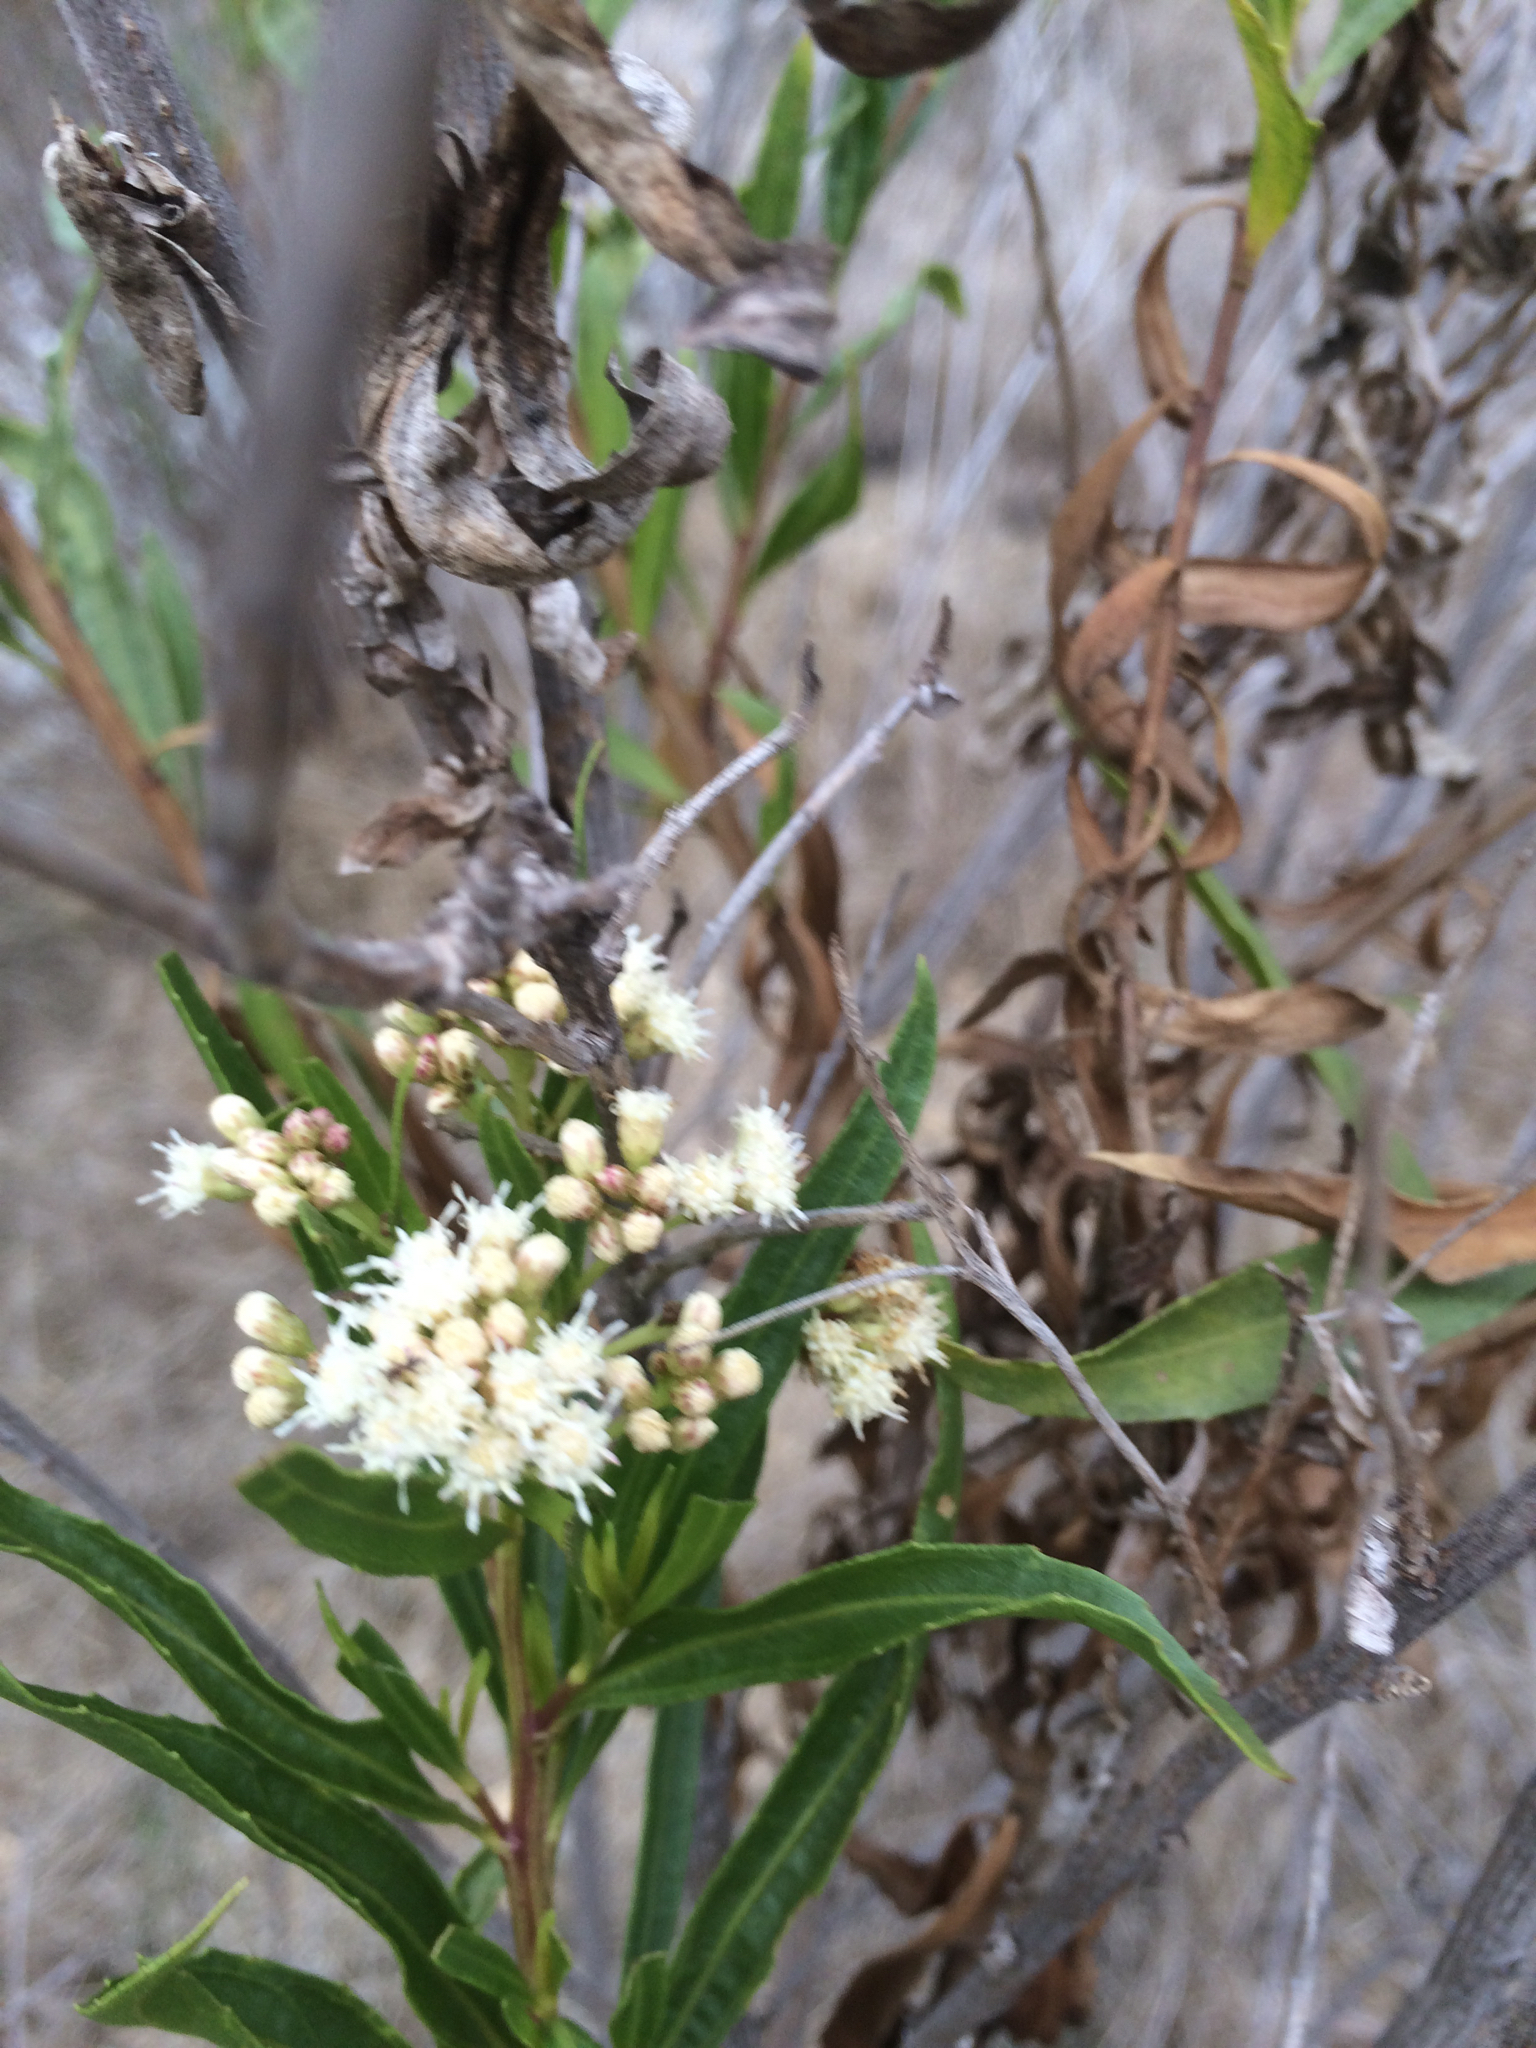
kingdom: Plantae
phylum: Tracheophyta
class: Magnoliopsida
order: Asterales
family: Asteraceae
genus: Baccharis
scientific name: Baccharis salicifolia
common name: Sticky baccharis
